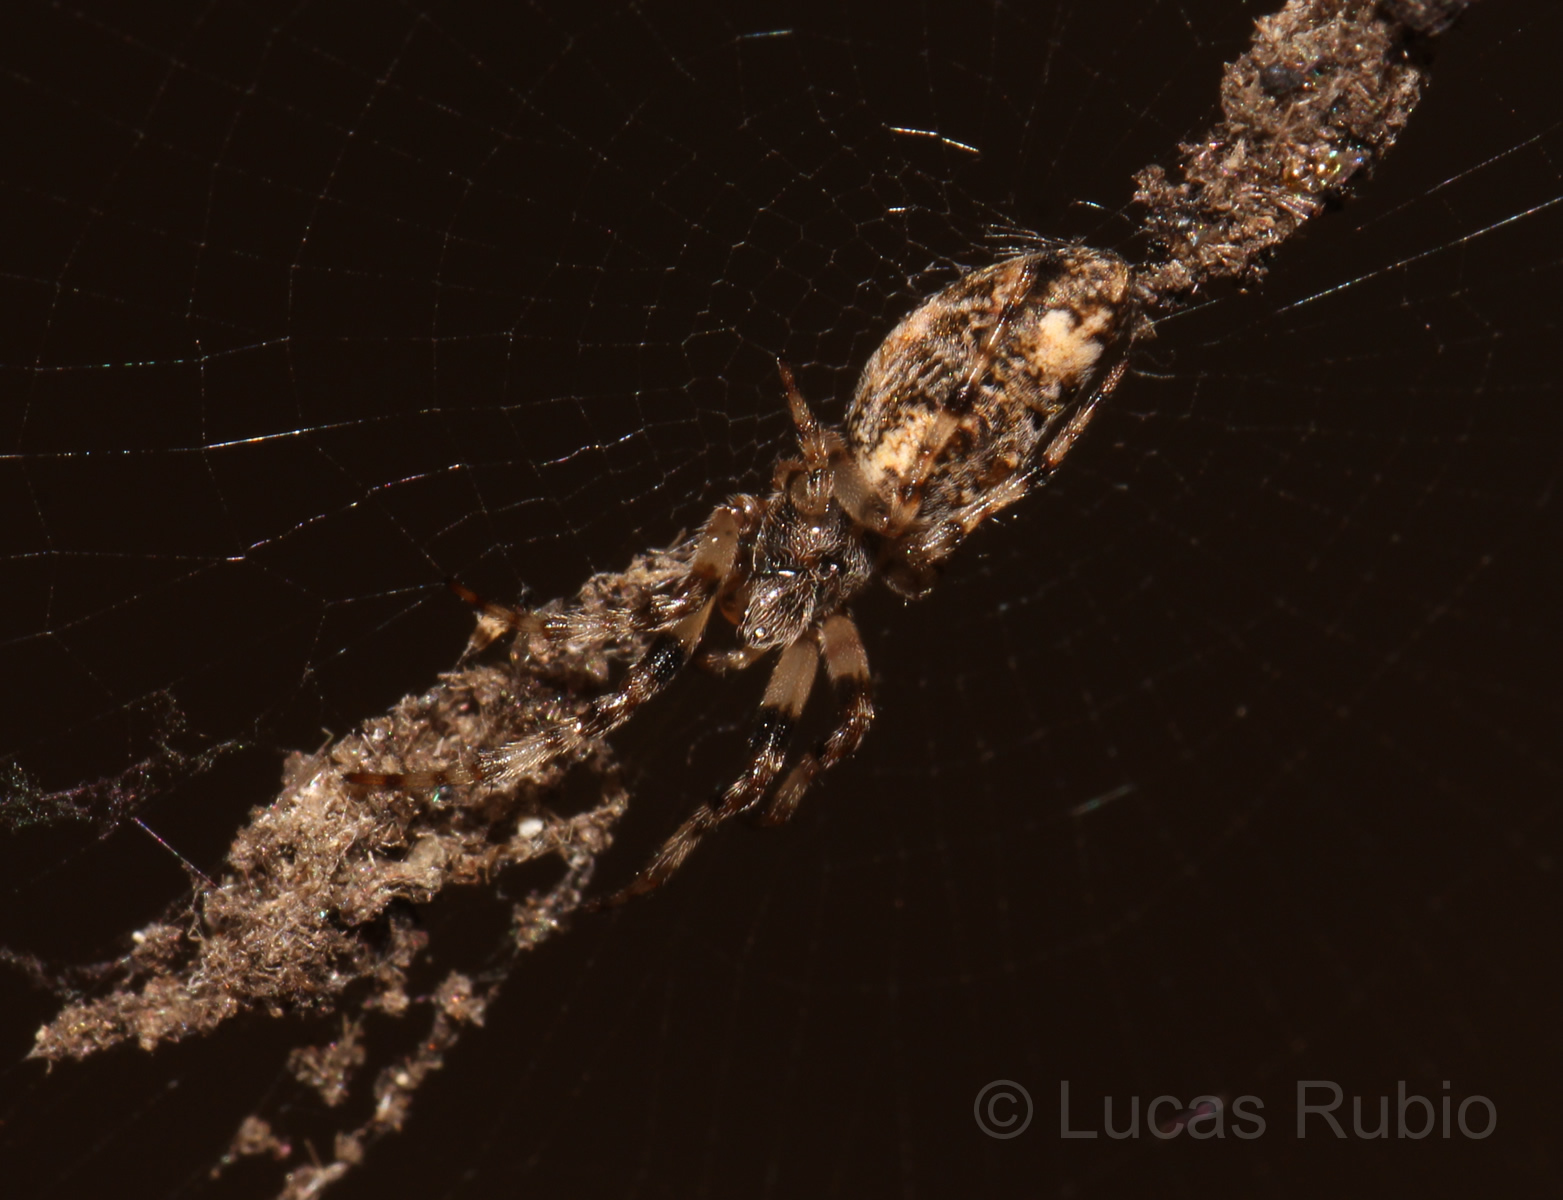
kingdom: Animalia
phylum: Arthropoda
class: Arachnida
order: Araneae
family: Araneidae
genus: Cyclosa
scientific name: Cyclosa machadinho
